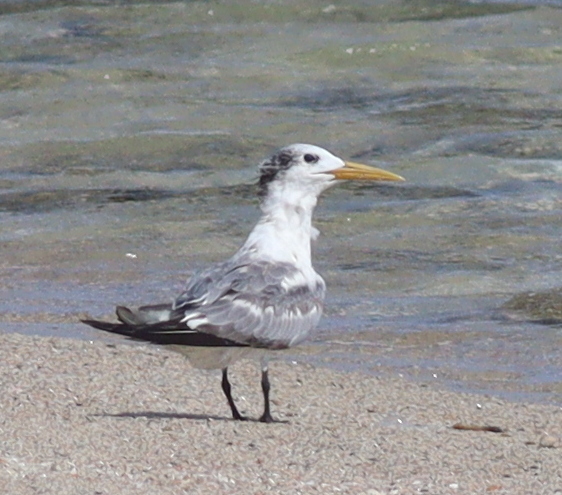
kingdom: Animalia
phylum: Chordata
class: Aves
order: Charadriiformes
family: Laridae
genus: Thalasseus
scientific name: Thalasseus bergii
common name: Greater crested tern
